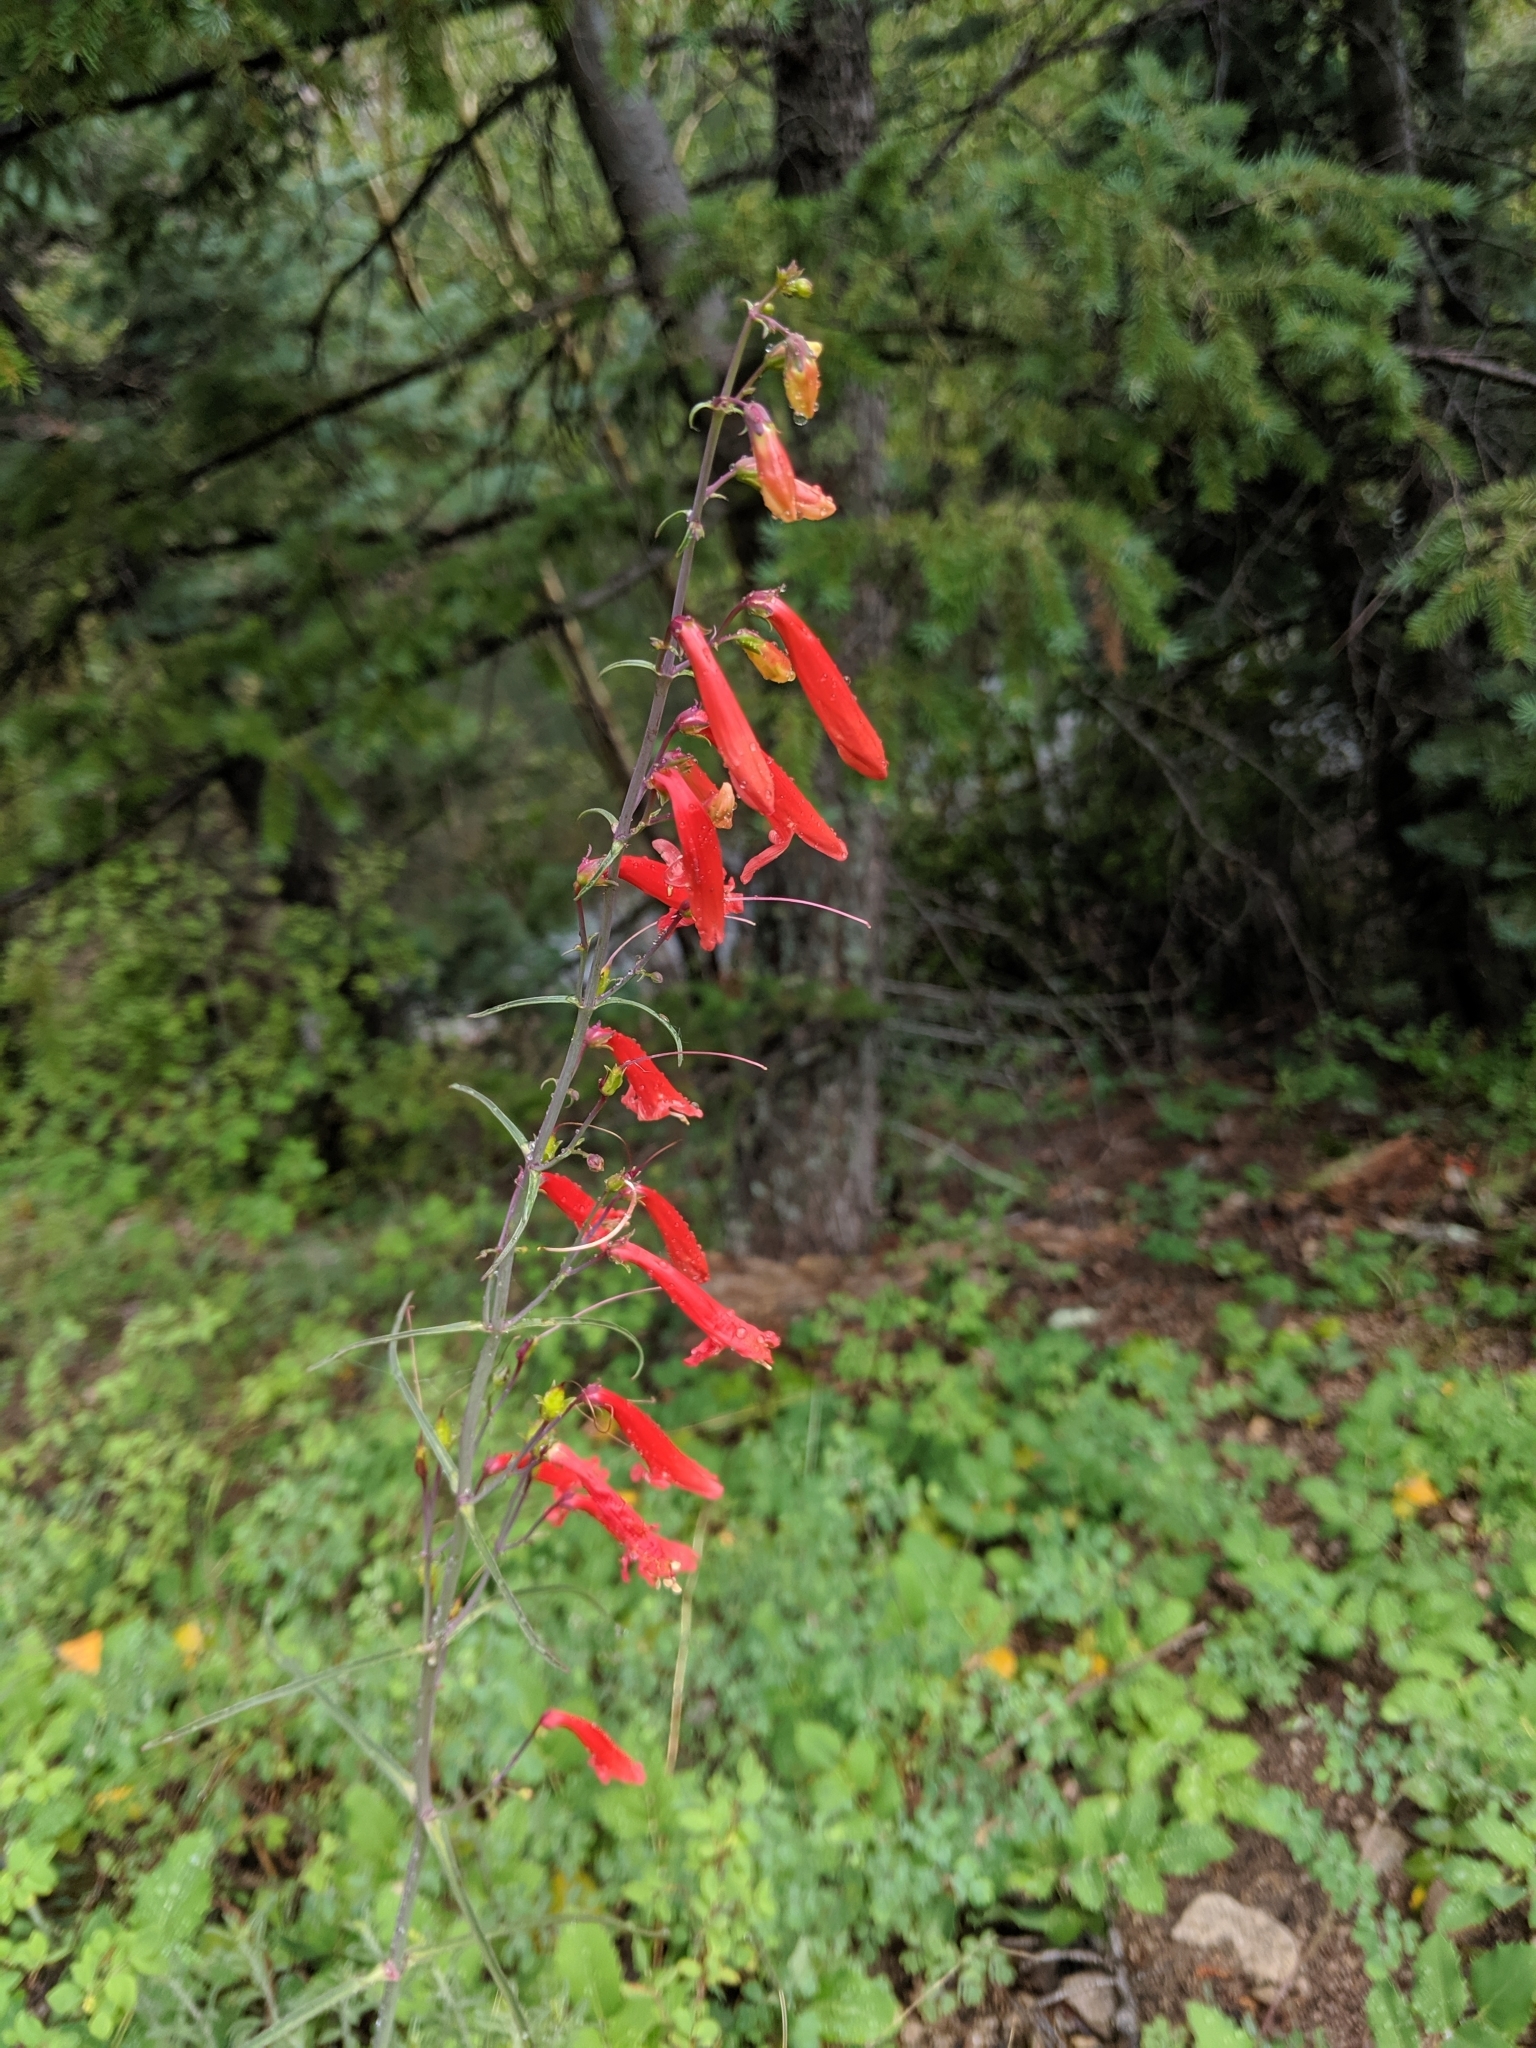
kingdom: Plantae
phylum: Tracheophyta
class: Magnoliopsida
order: Lamiales
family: Plantaginaceae
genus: Penstemon
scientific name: Penstemon barbatus
